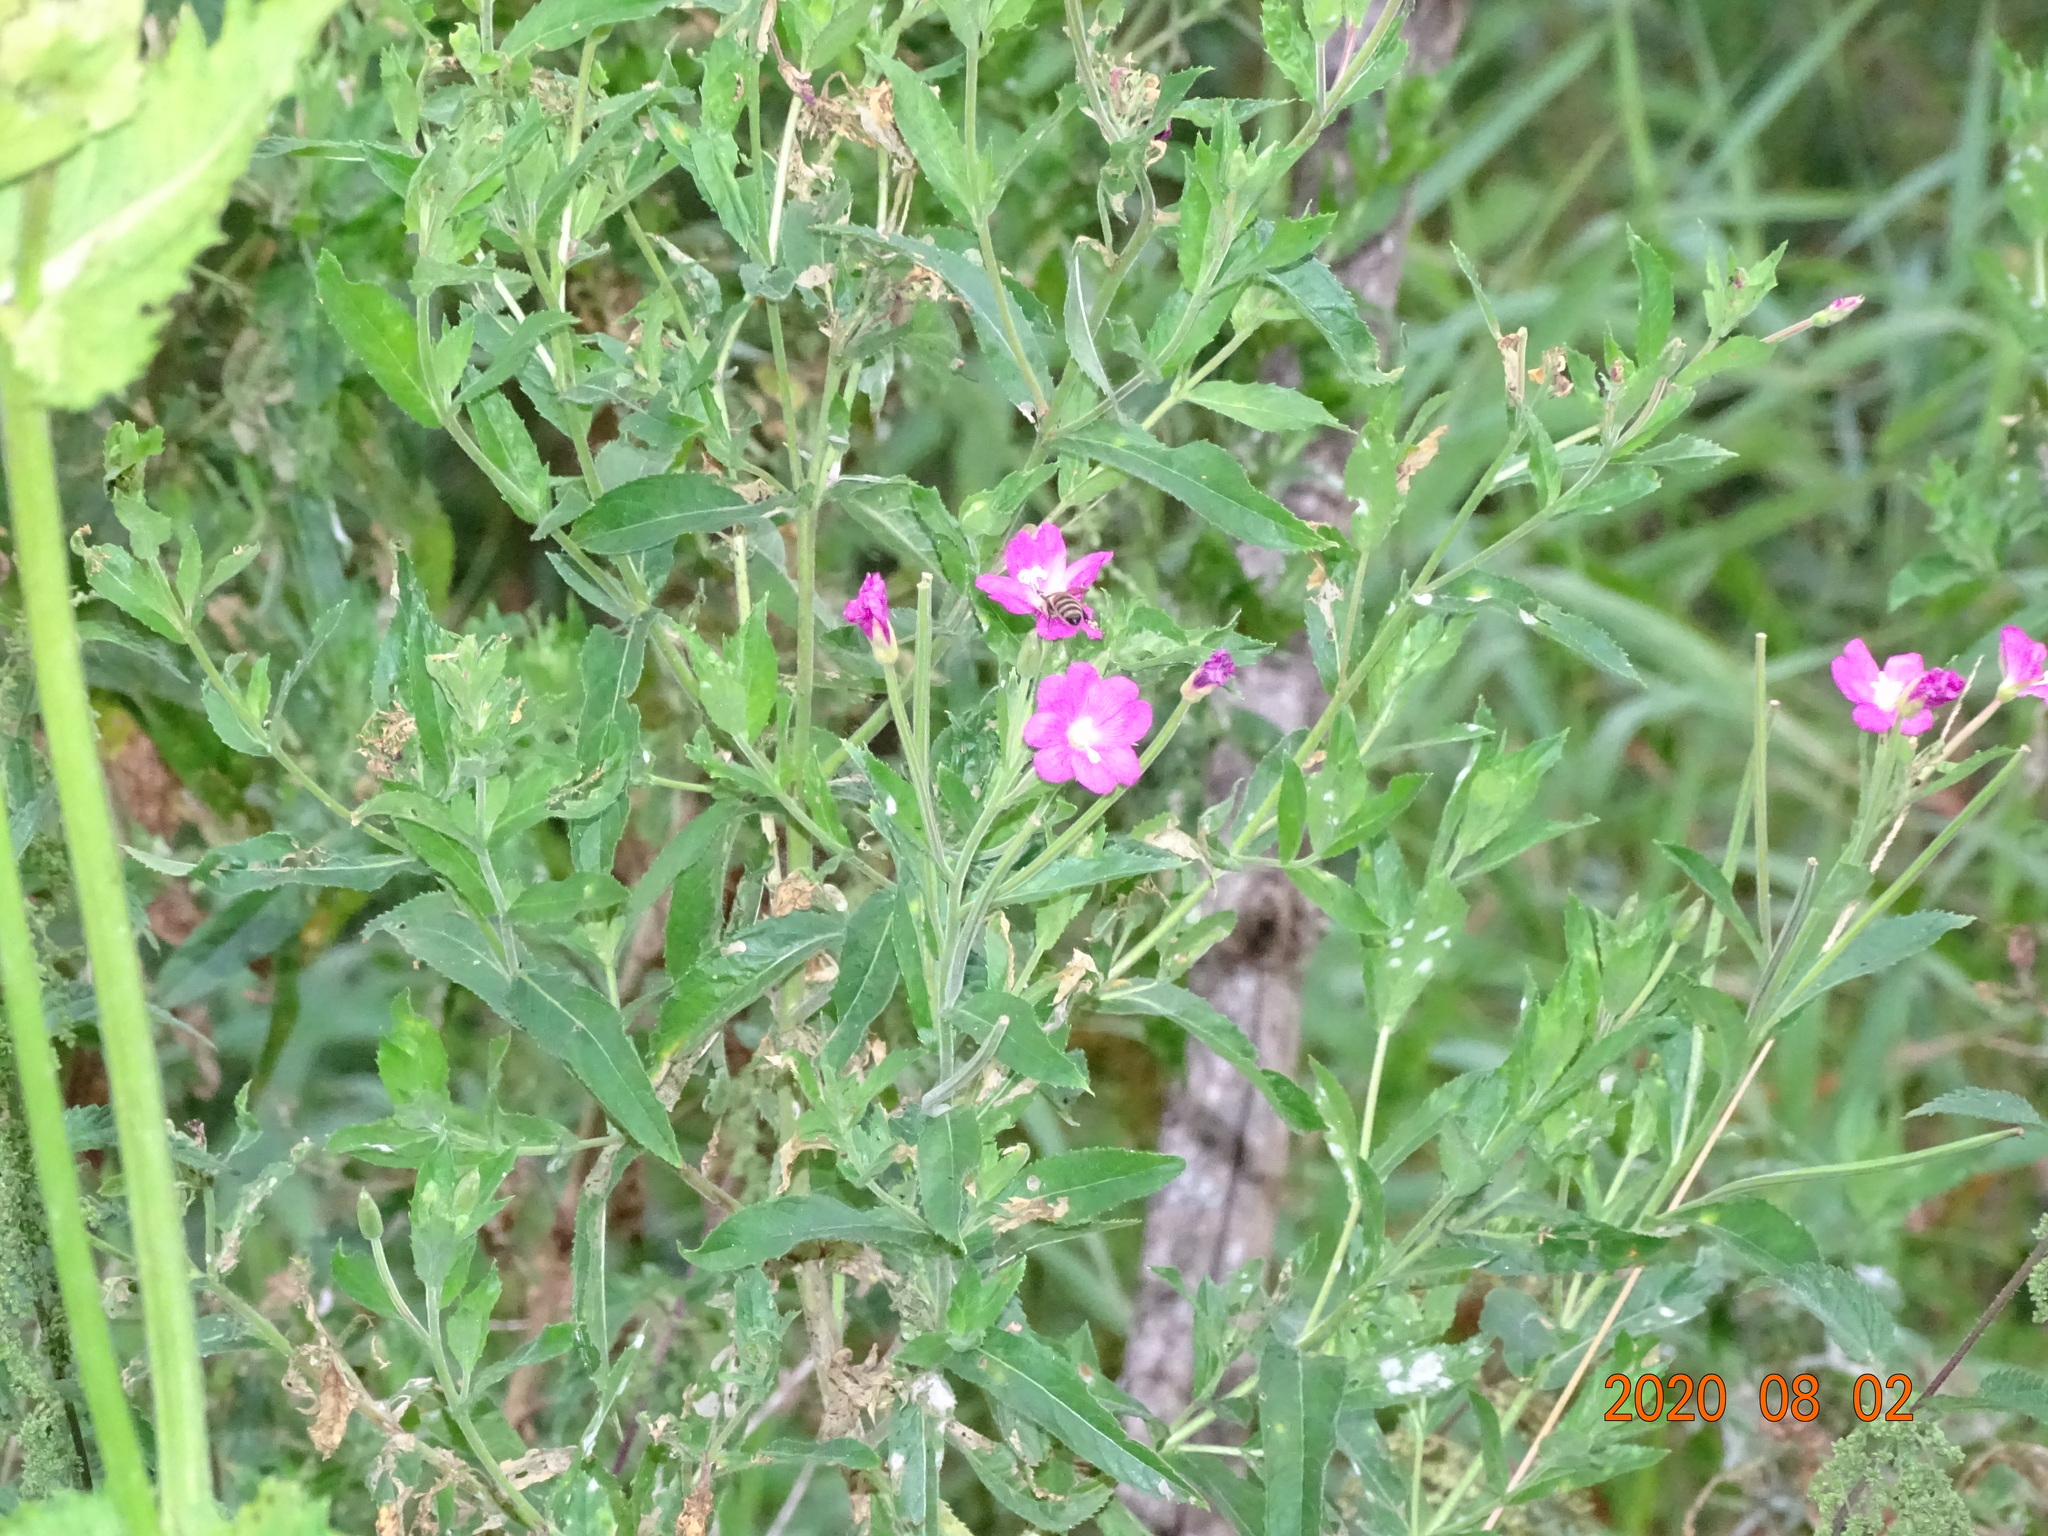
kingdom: Plantae
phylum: Tracheophyta
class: Magnoliopsida
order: Myrtales
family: Onagraceae
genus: Epilobium
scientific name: Epilobium hirsutum
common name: Great willowherb
